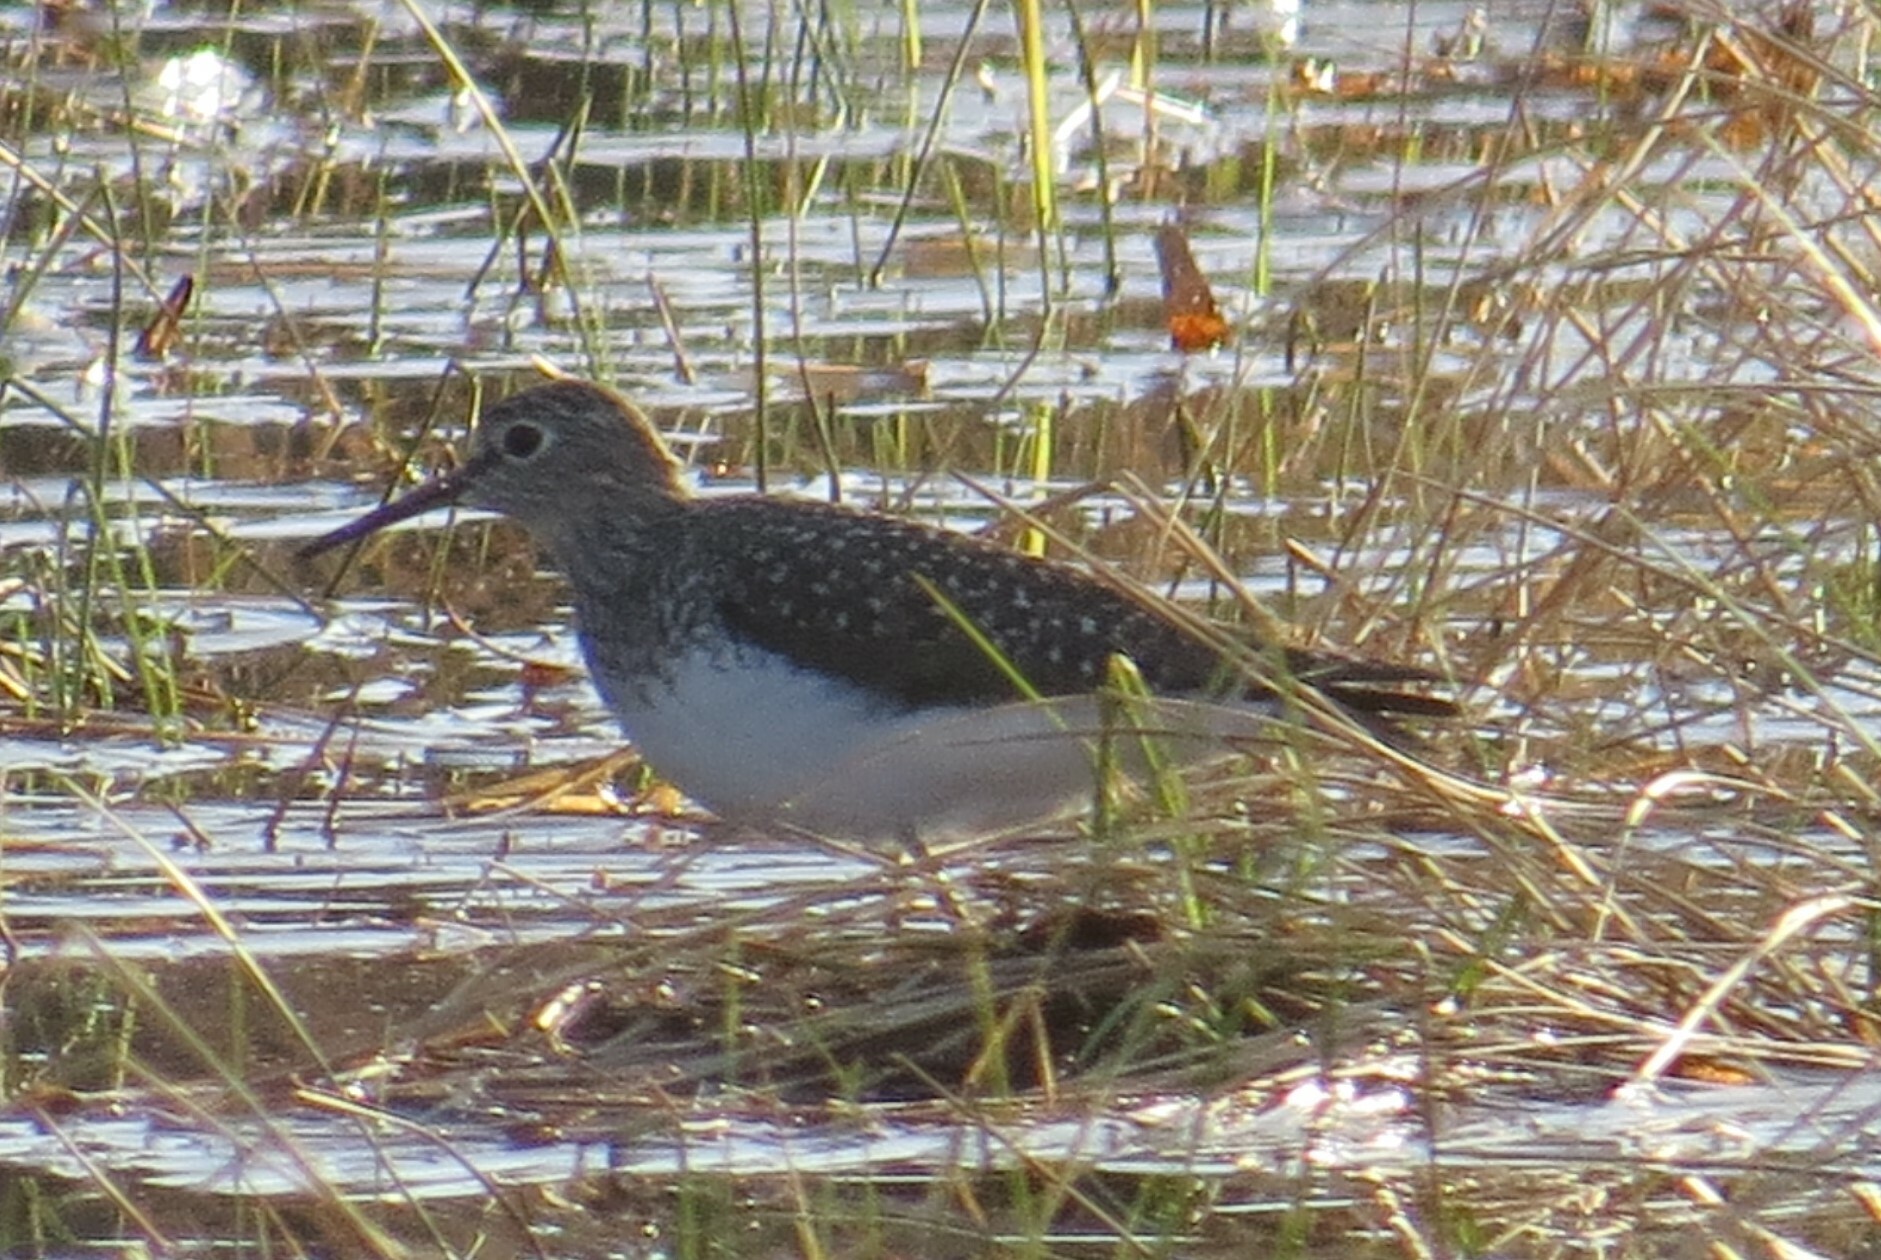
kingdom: Animalia
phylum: Chordata
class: Aves
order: Charadriiformes
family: Scolopacidae
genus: Tringa
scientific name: Tringa solitaria
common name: Solitary sandpiper
